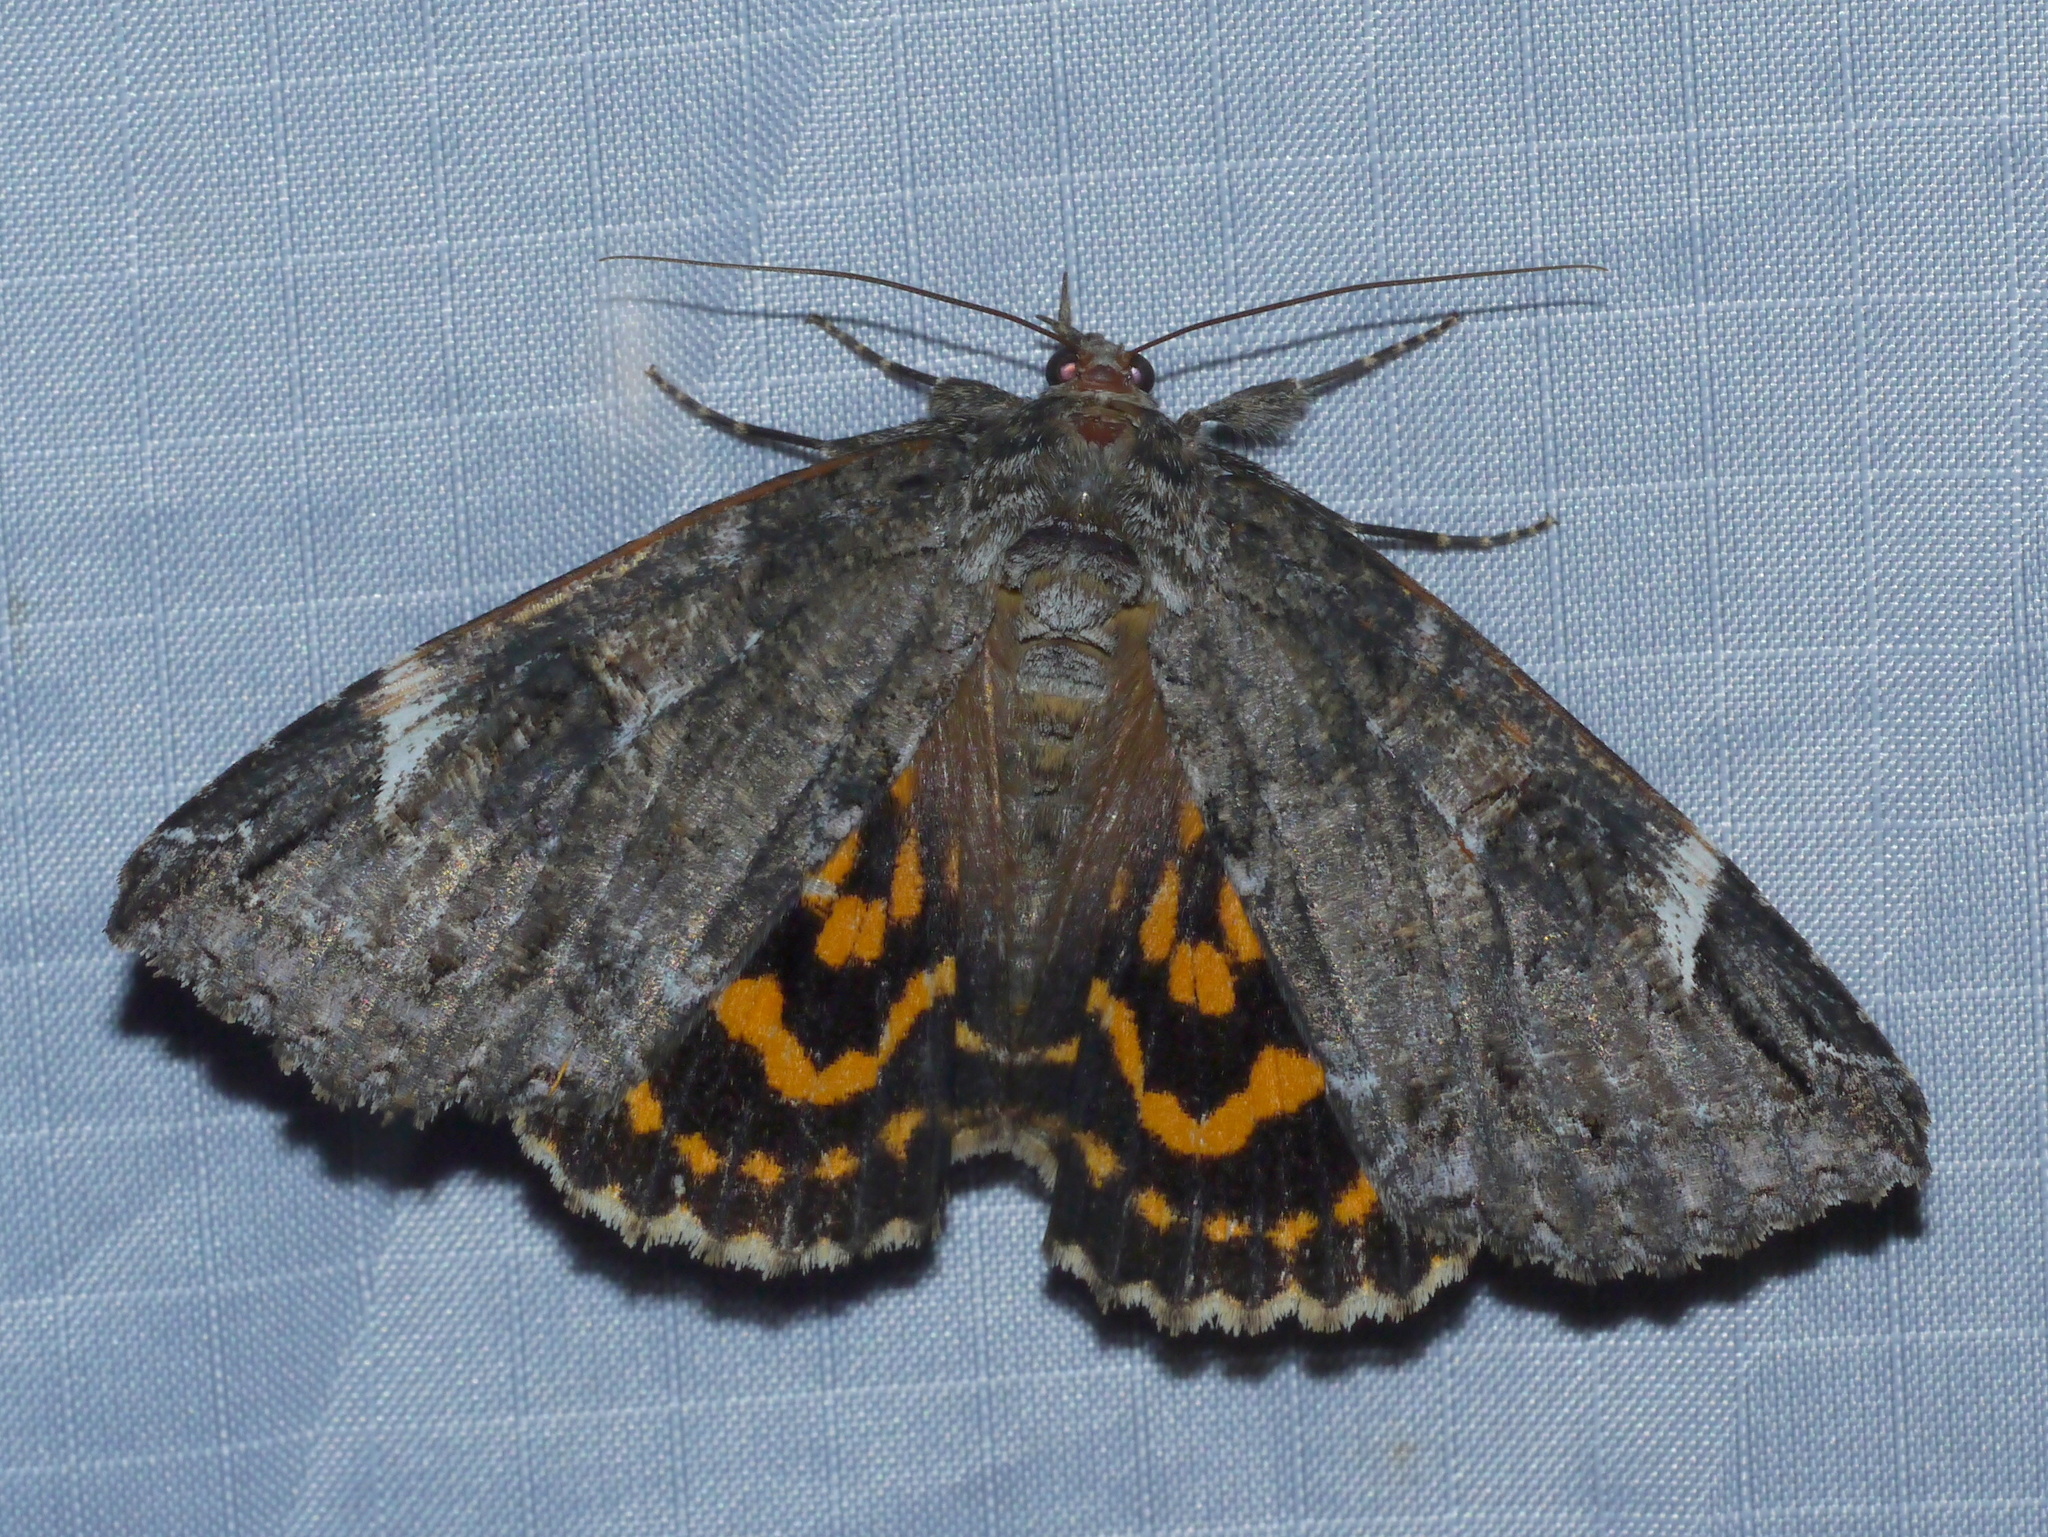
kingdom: Animalia
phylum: Arthropoda
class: Insecta
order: Lepidoptera
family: Erebidae
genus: Euparthenos
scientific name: Euparthenos nubilis
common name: Locust underwing
